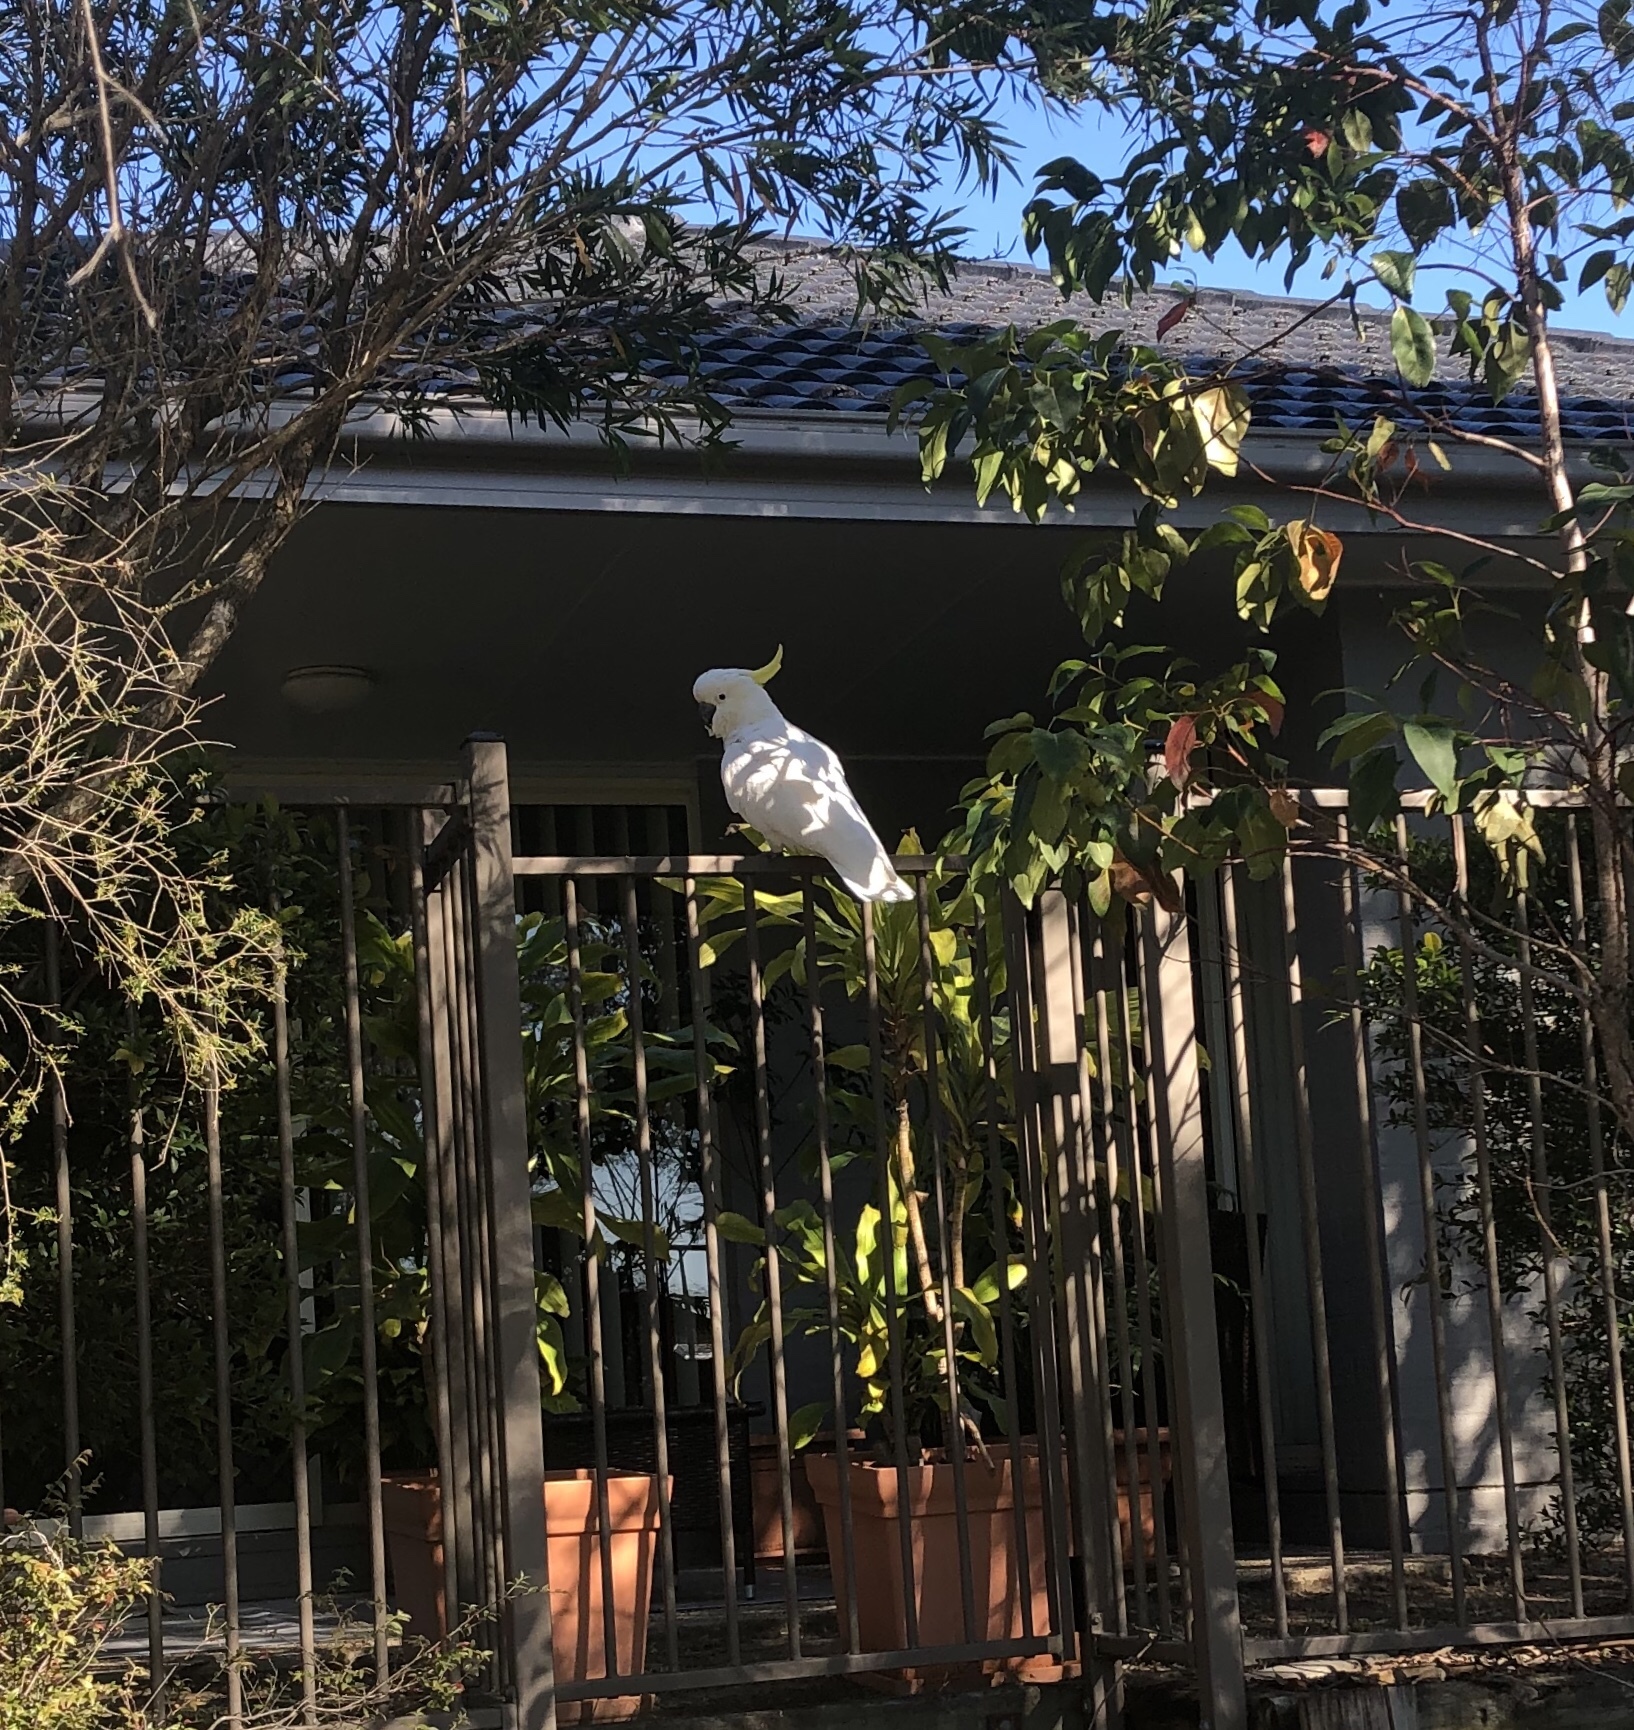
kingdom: Animalia
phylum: Chordata
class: Aves
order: Psittaciformes
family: Psittacidae
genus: Cacatua
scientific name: Cacatua galerita
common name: Sulphur-crested cockatoo
